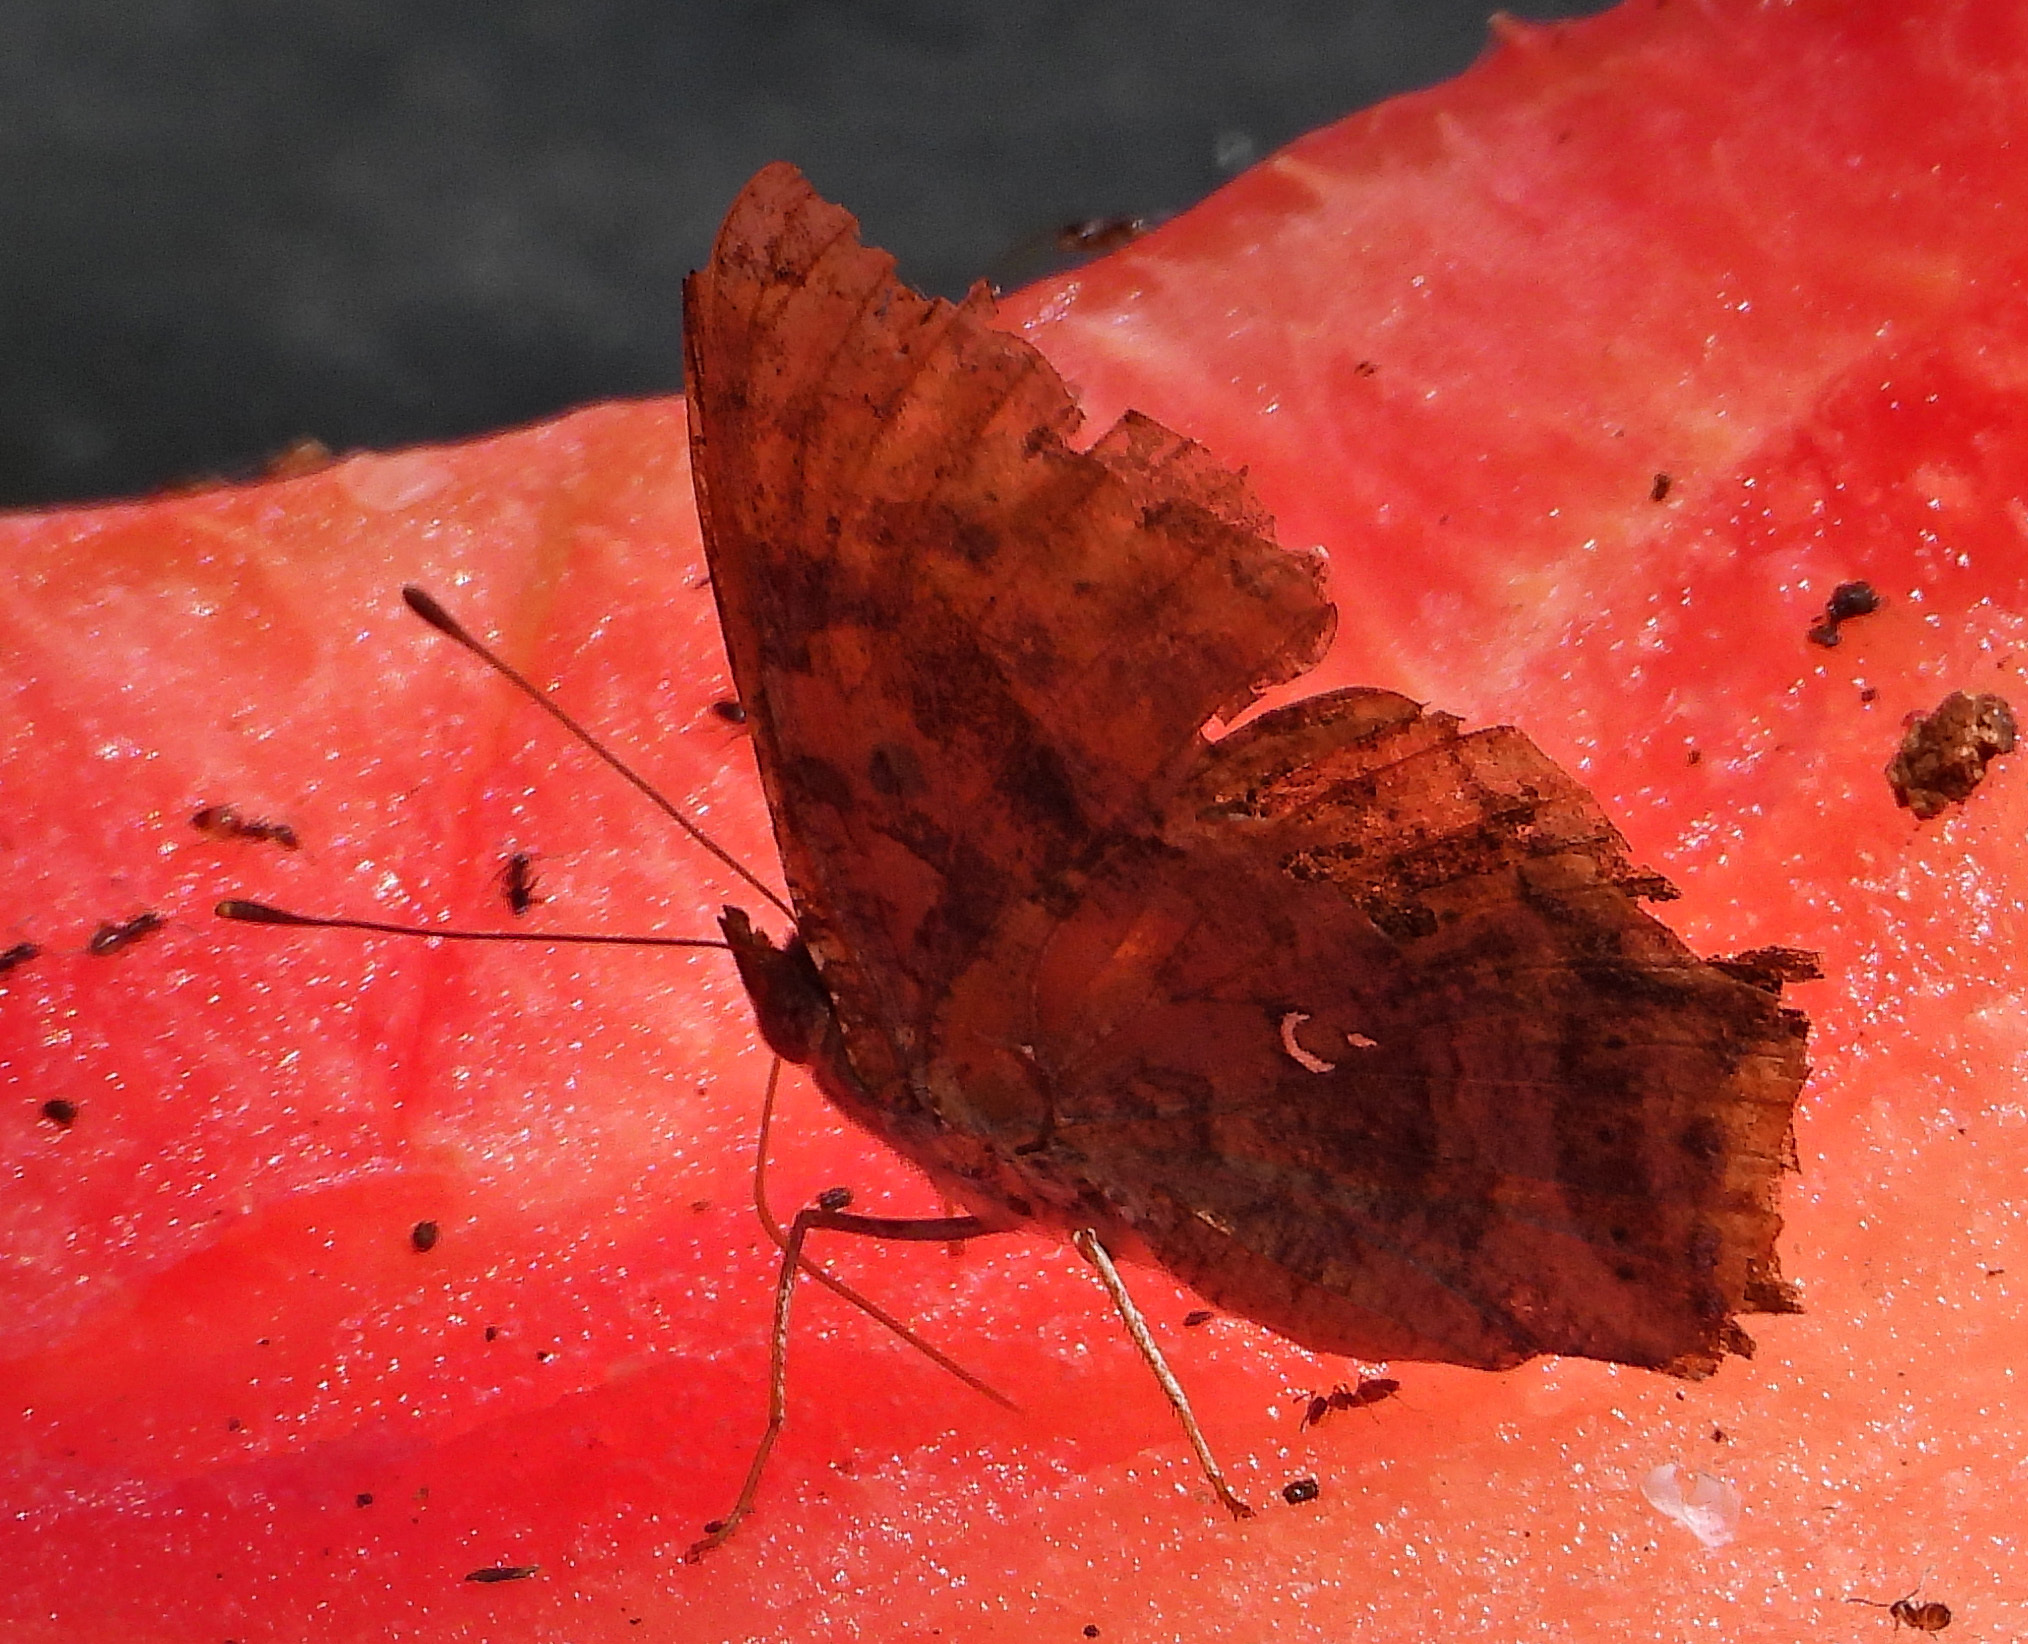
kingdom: Animalia
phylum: Arthropoda
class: Insecta
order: Lepidoptera
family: Nymphalidae
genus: Polygonia
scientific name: Polygonia interrogationis
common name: Question mark
